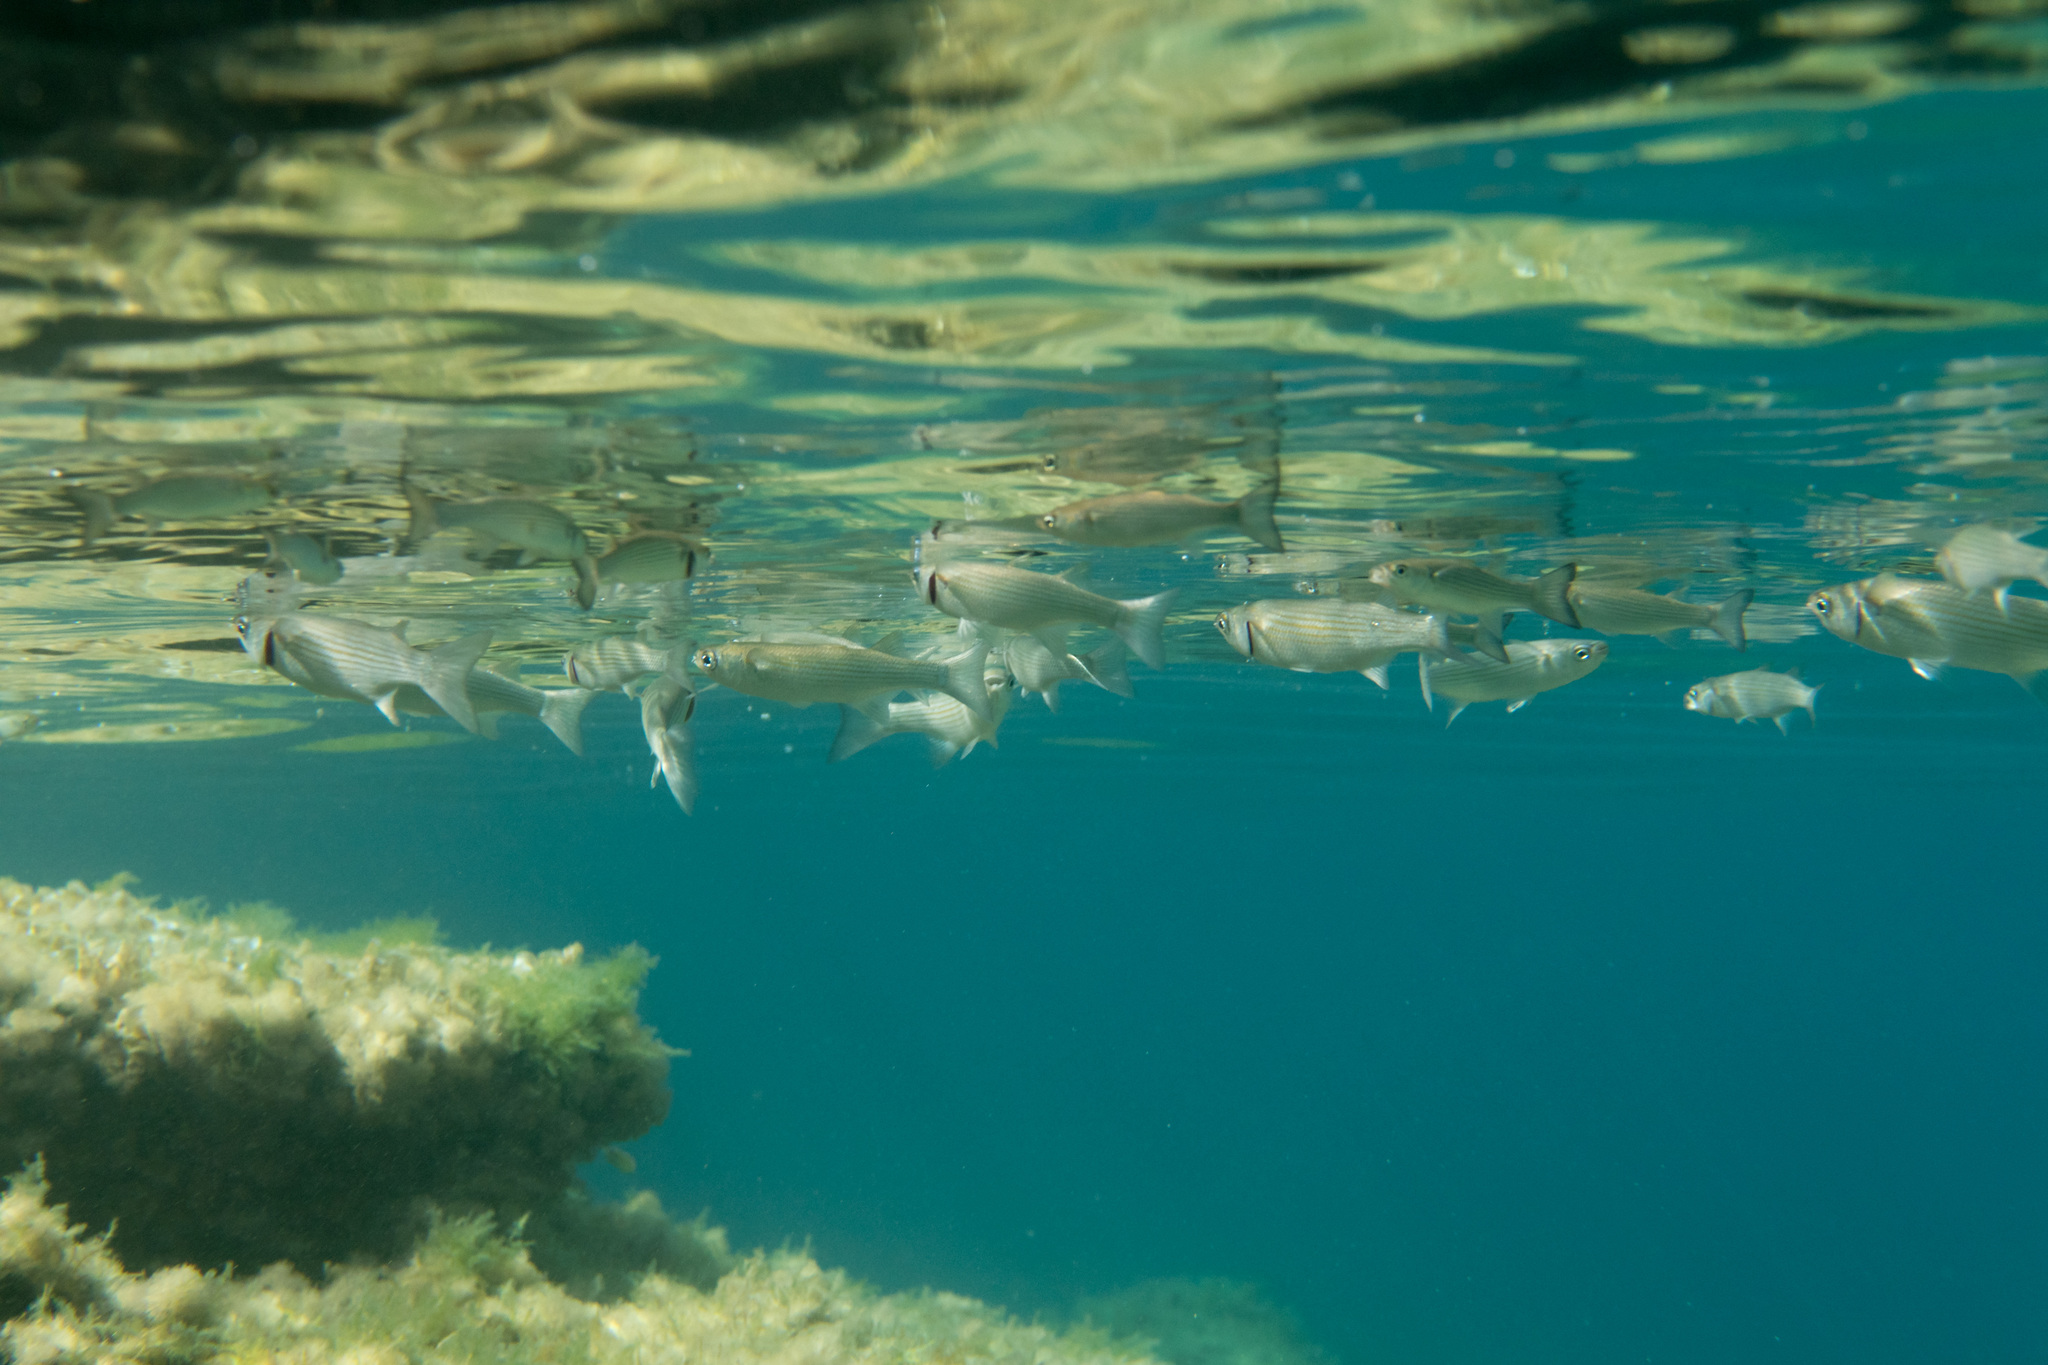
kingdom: Animalia
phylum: Chordata
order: Mugiliformes
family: Mugilidae
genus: Oedalechilus
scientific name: Oedalechilus labeo
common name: Boxlip mullet
